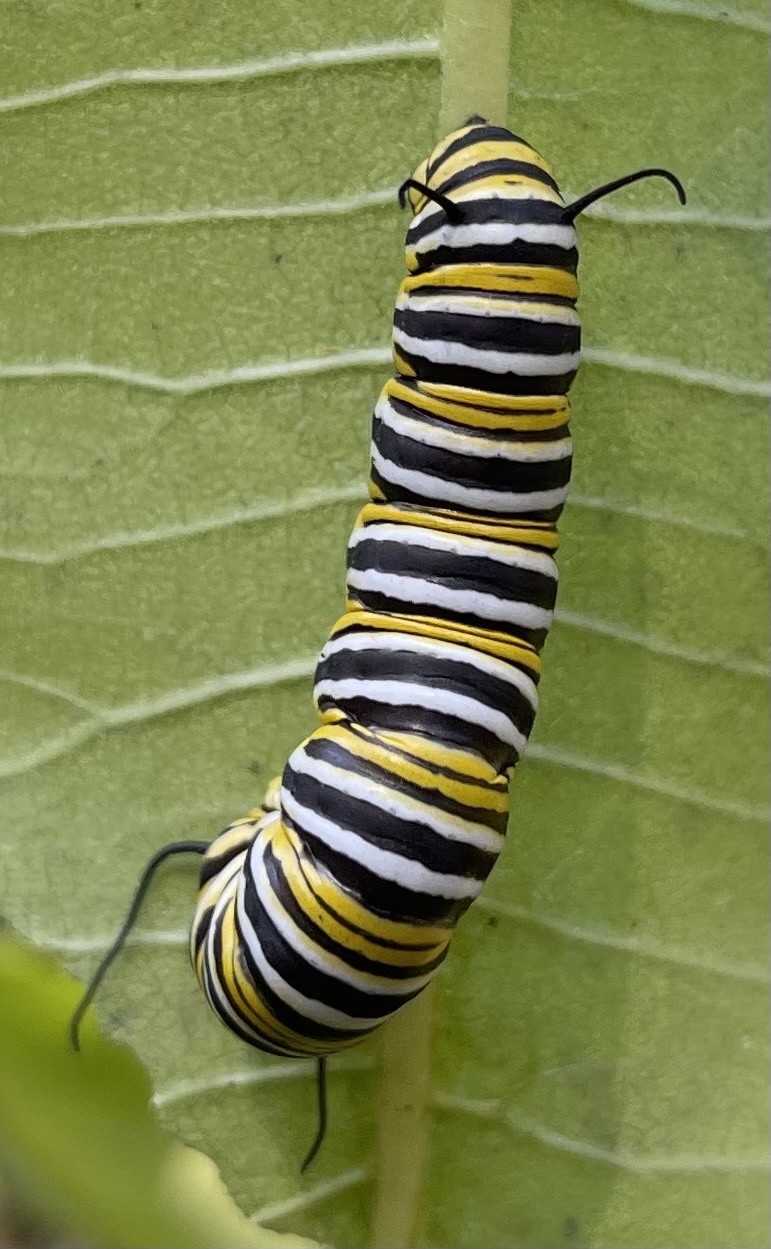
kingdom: Animalia
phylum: Arthropoda
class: Insecta
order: Lepidoptera
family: Nymphalidae
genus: Danaus
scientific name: Danaus plexippus
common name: Monarch
